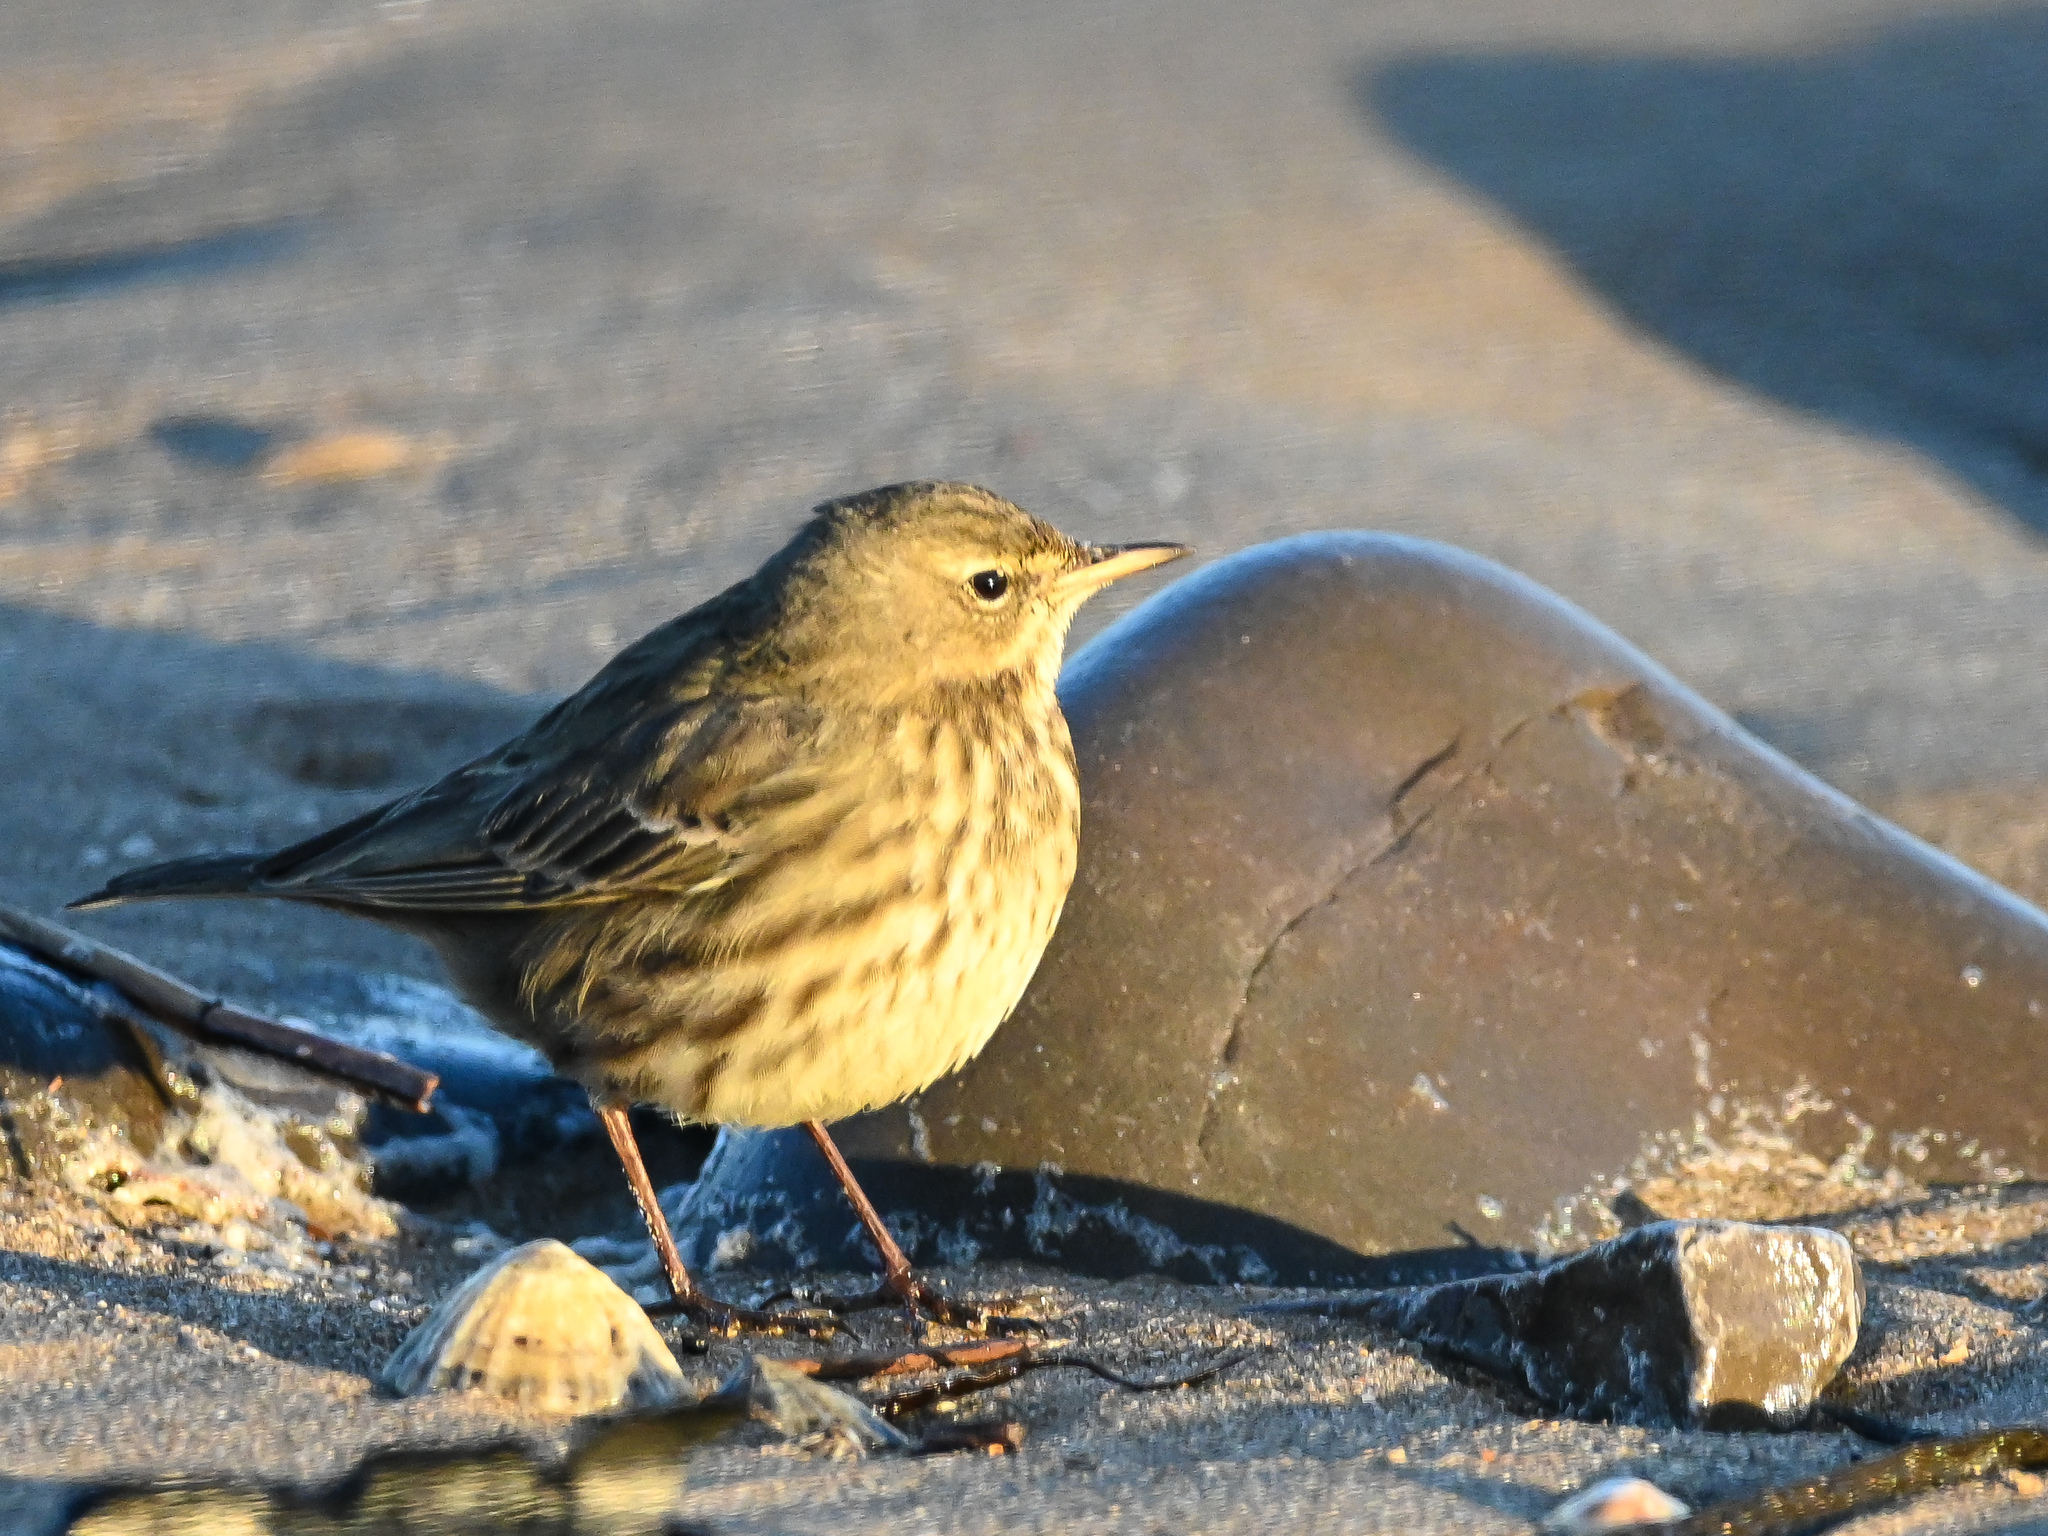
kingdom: Animalia
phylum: Chordata
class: Aves
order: Passeriformes
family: Motacillidae
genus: Anthus
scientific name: Anthus petrosus
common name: Eurasian rock pipit
